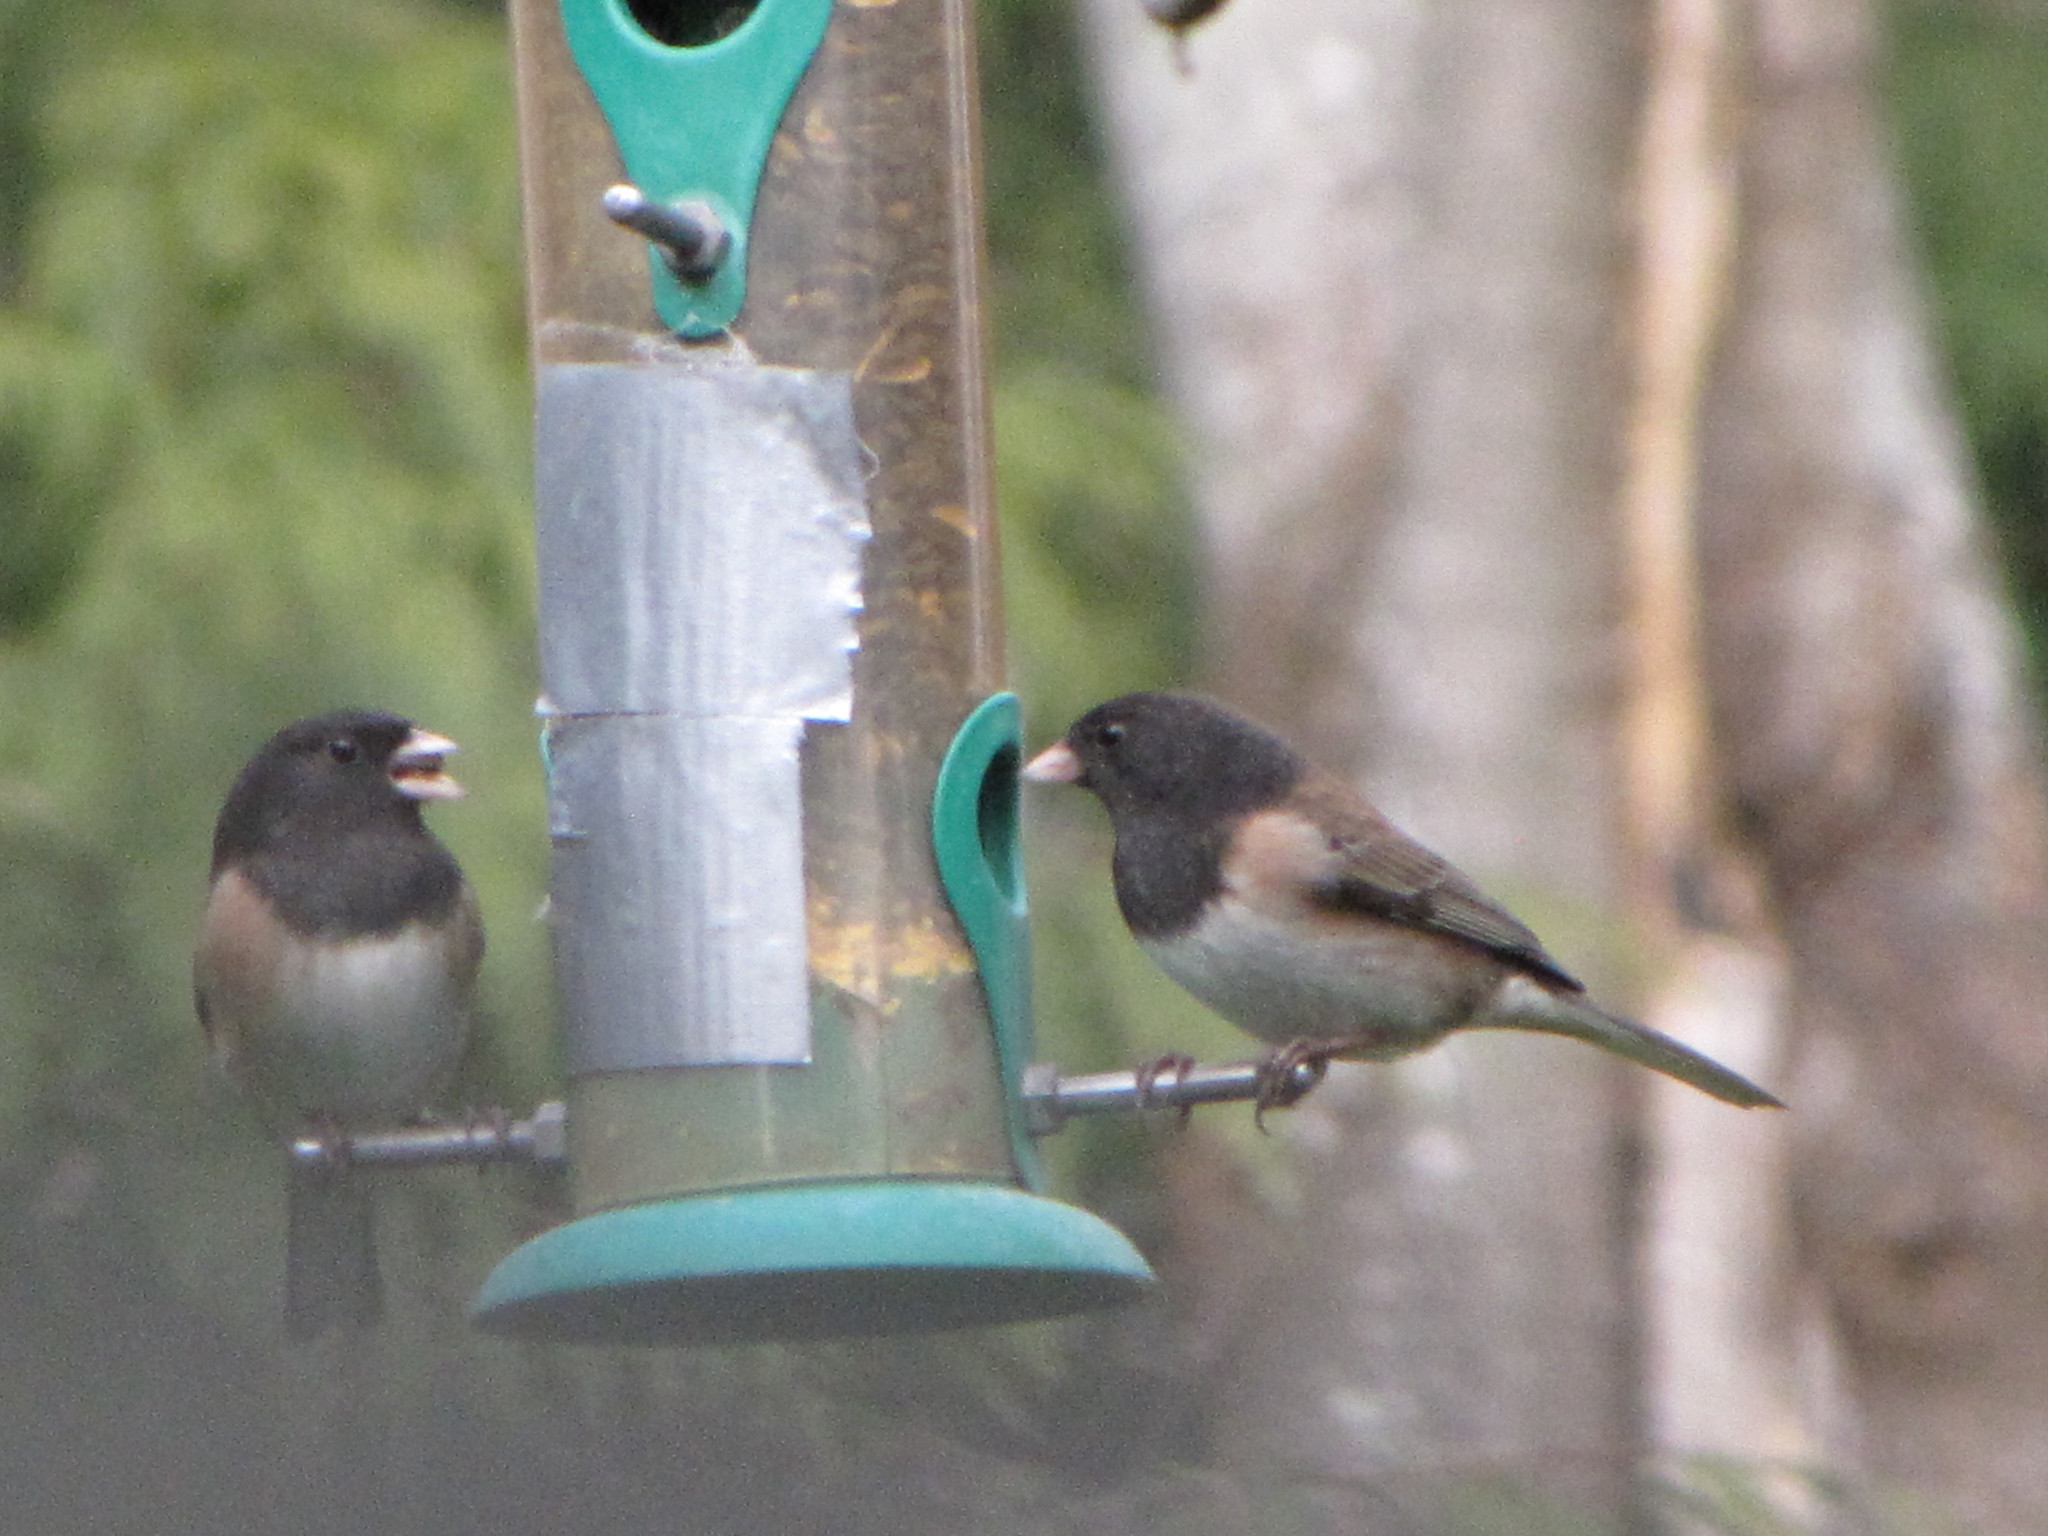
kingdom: Animalia
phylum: Chordata
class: Aves
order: Passeriformes
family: Passerellidae
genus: Junco
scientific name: Junco hyemalis
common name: Dark-eyed junco
